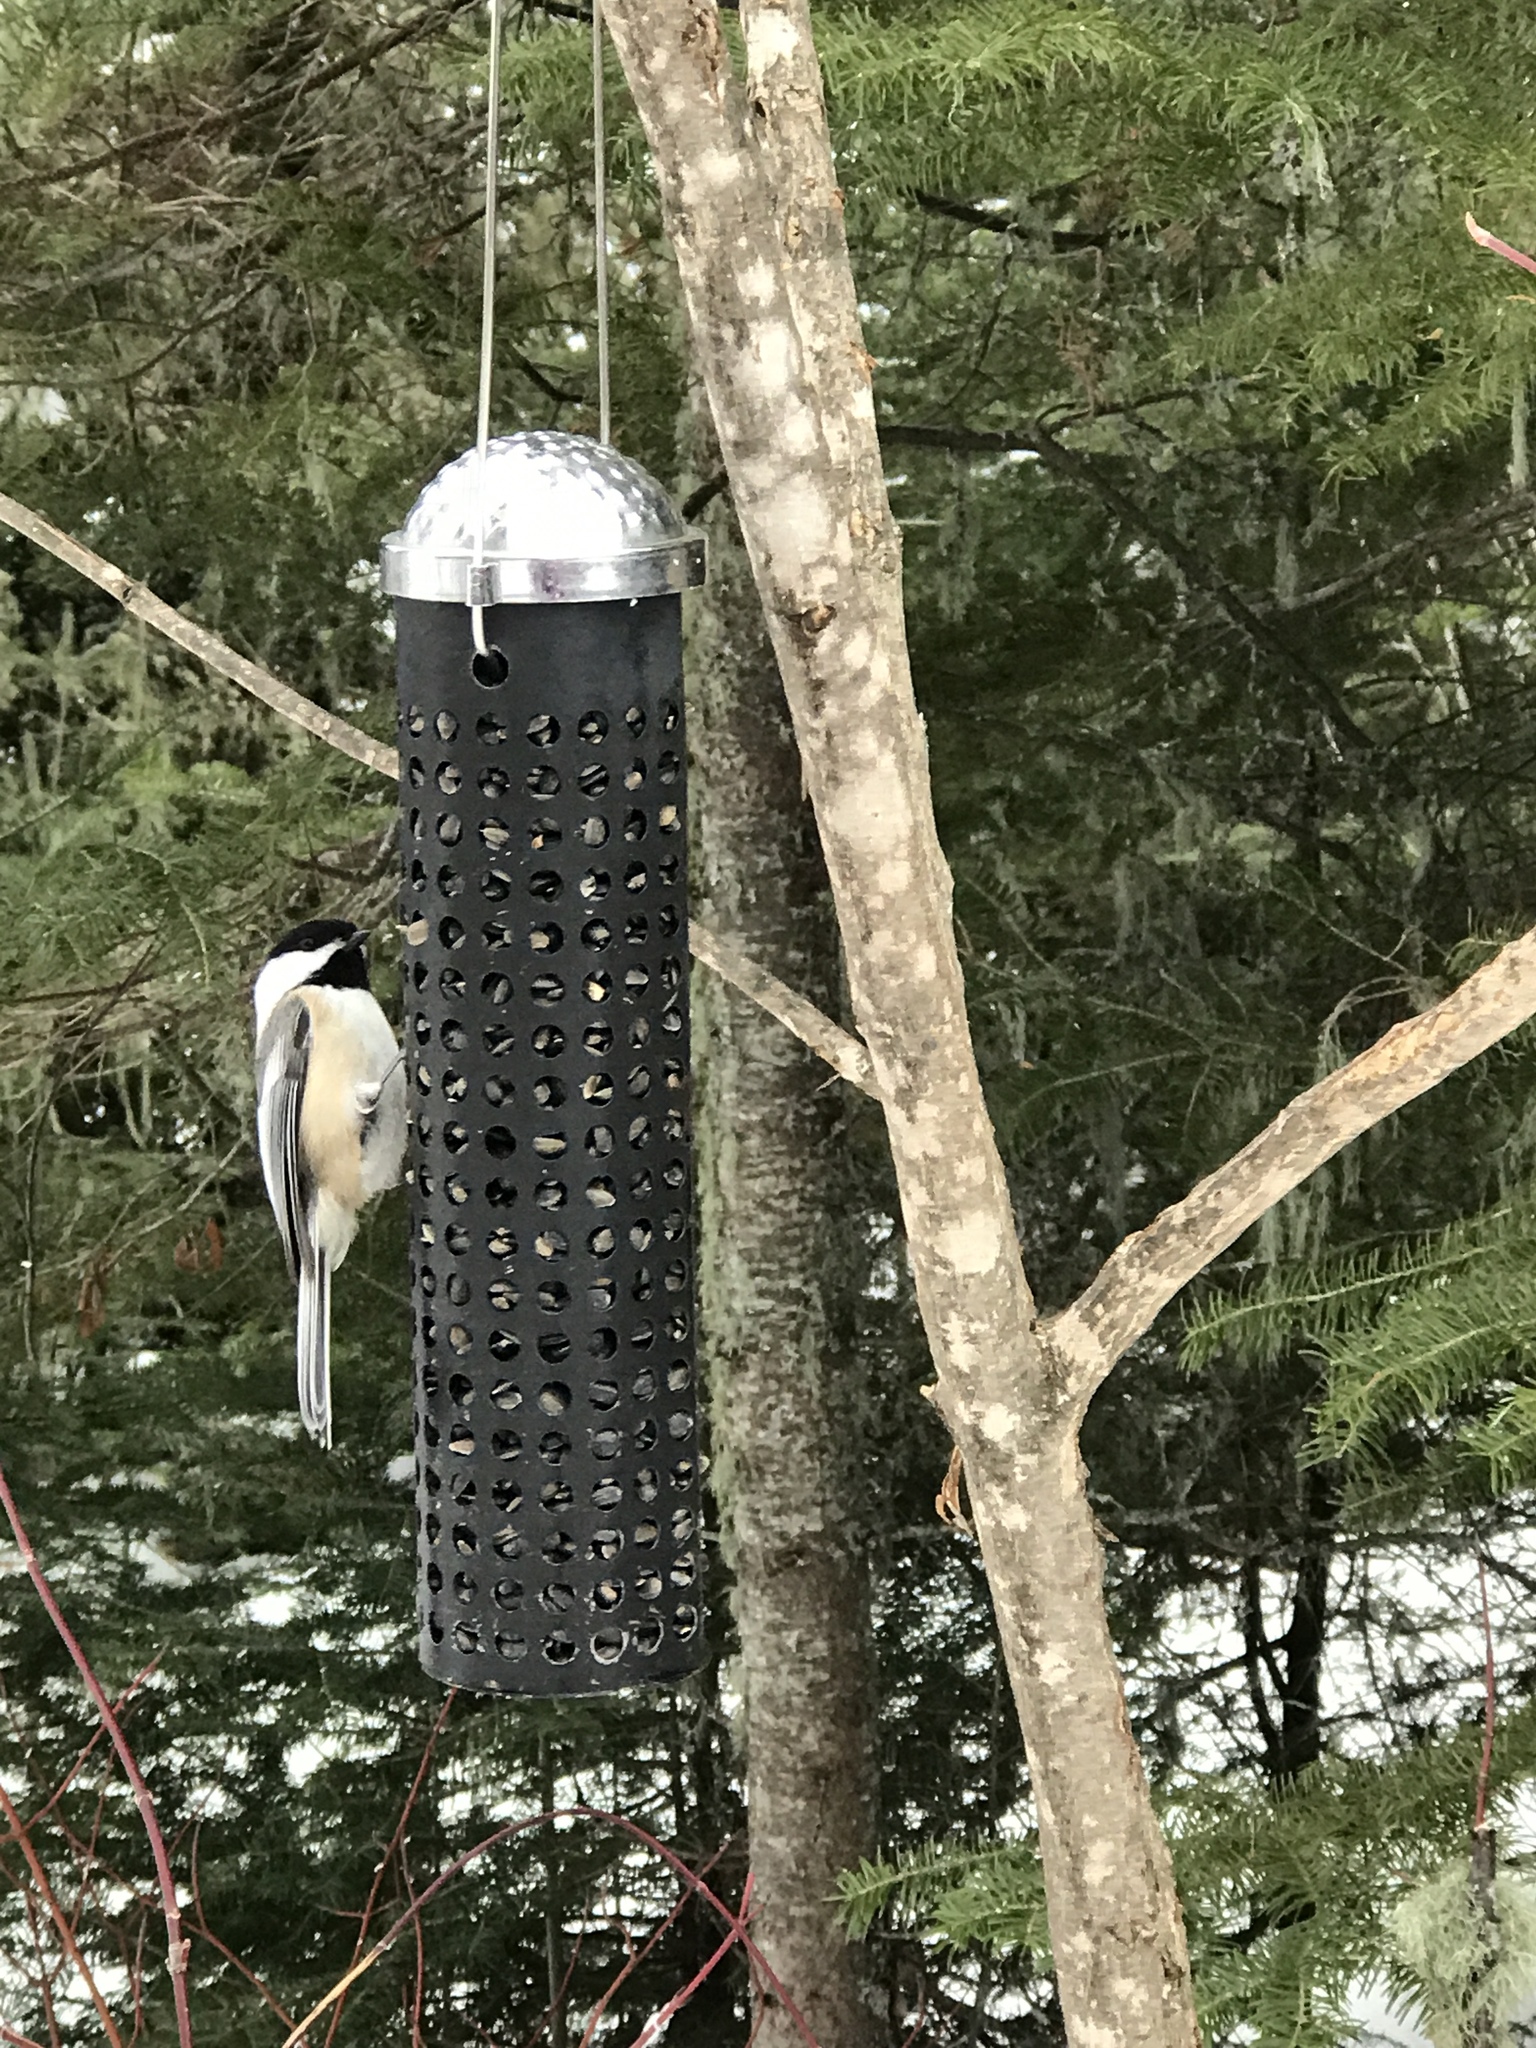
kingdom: Animalia
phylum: Chordata
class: Aves
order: Passeriformes
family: Paridae
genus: Poecile
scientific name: Poecile atricapillus
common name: Black-capped chickadee
